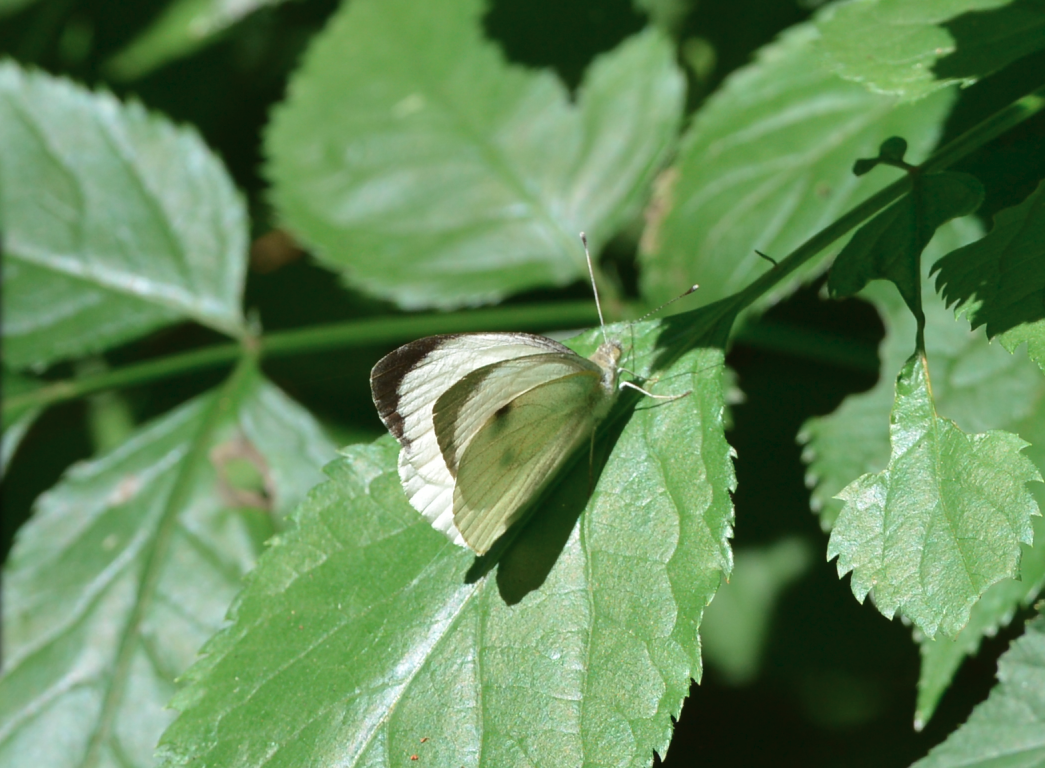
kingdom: Animalia
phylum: Arthropoda
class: Insecta
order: Lepidoptera
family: Pieridae
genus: Pieris
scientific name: Pieris brassicae
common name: Large white
